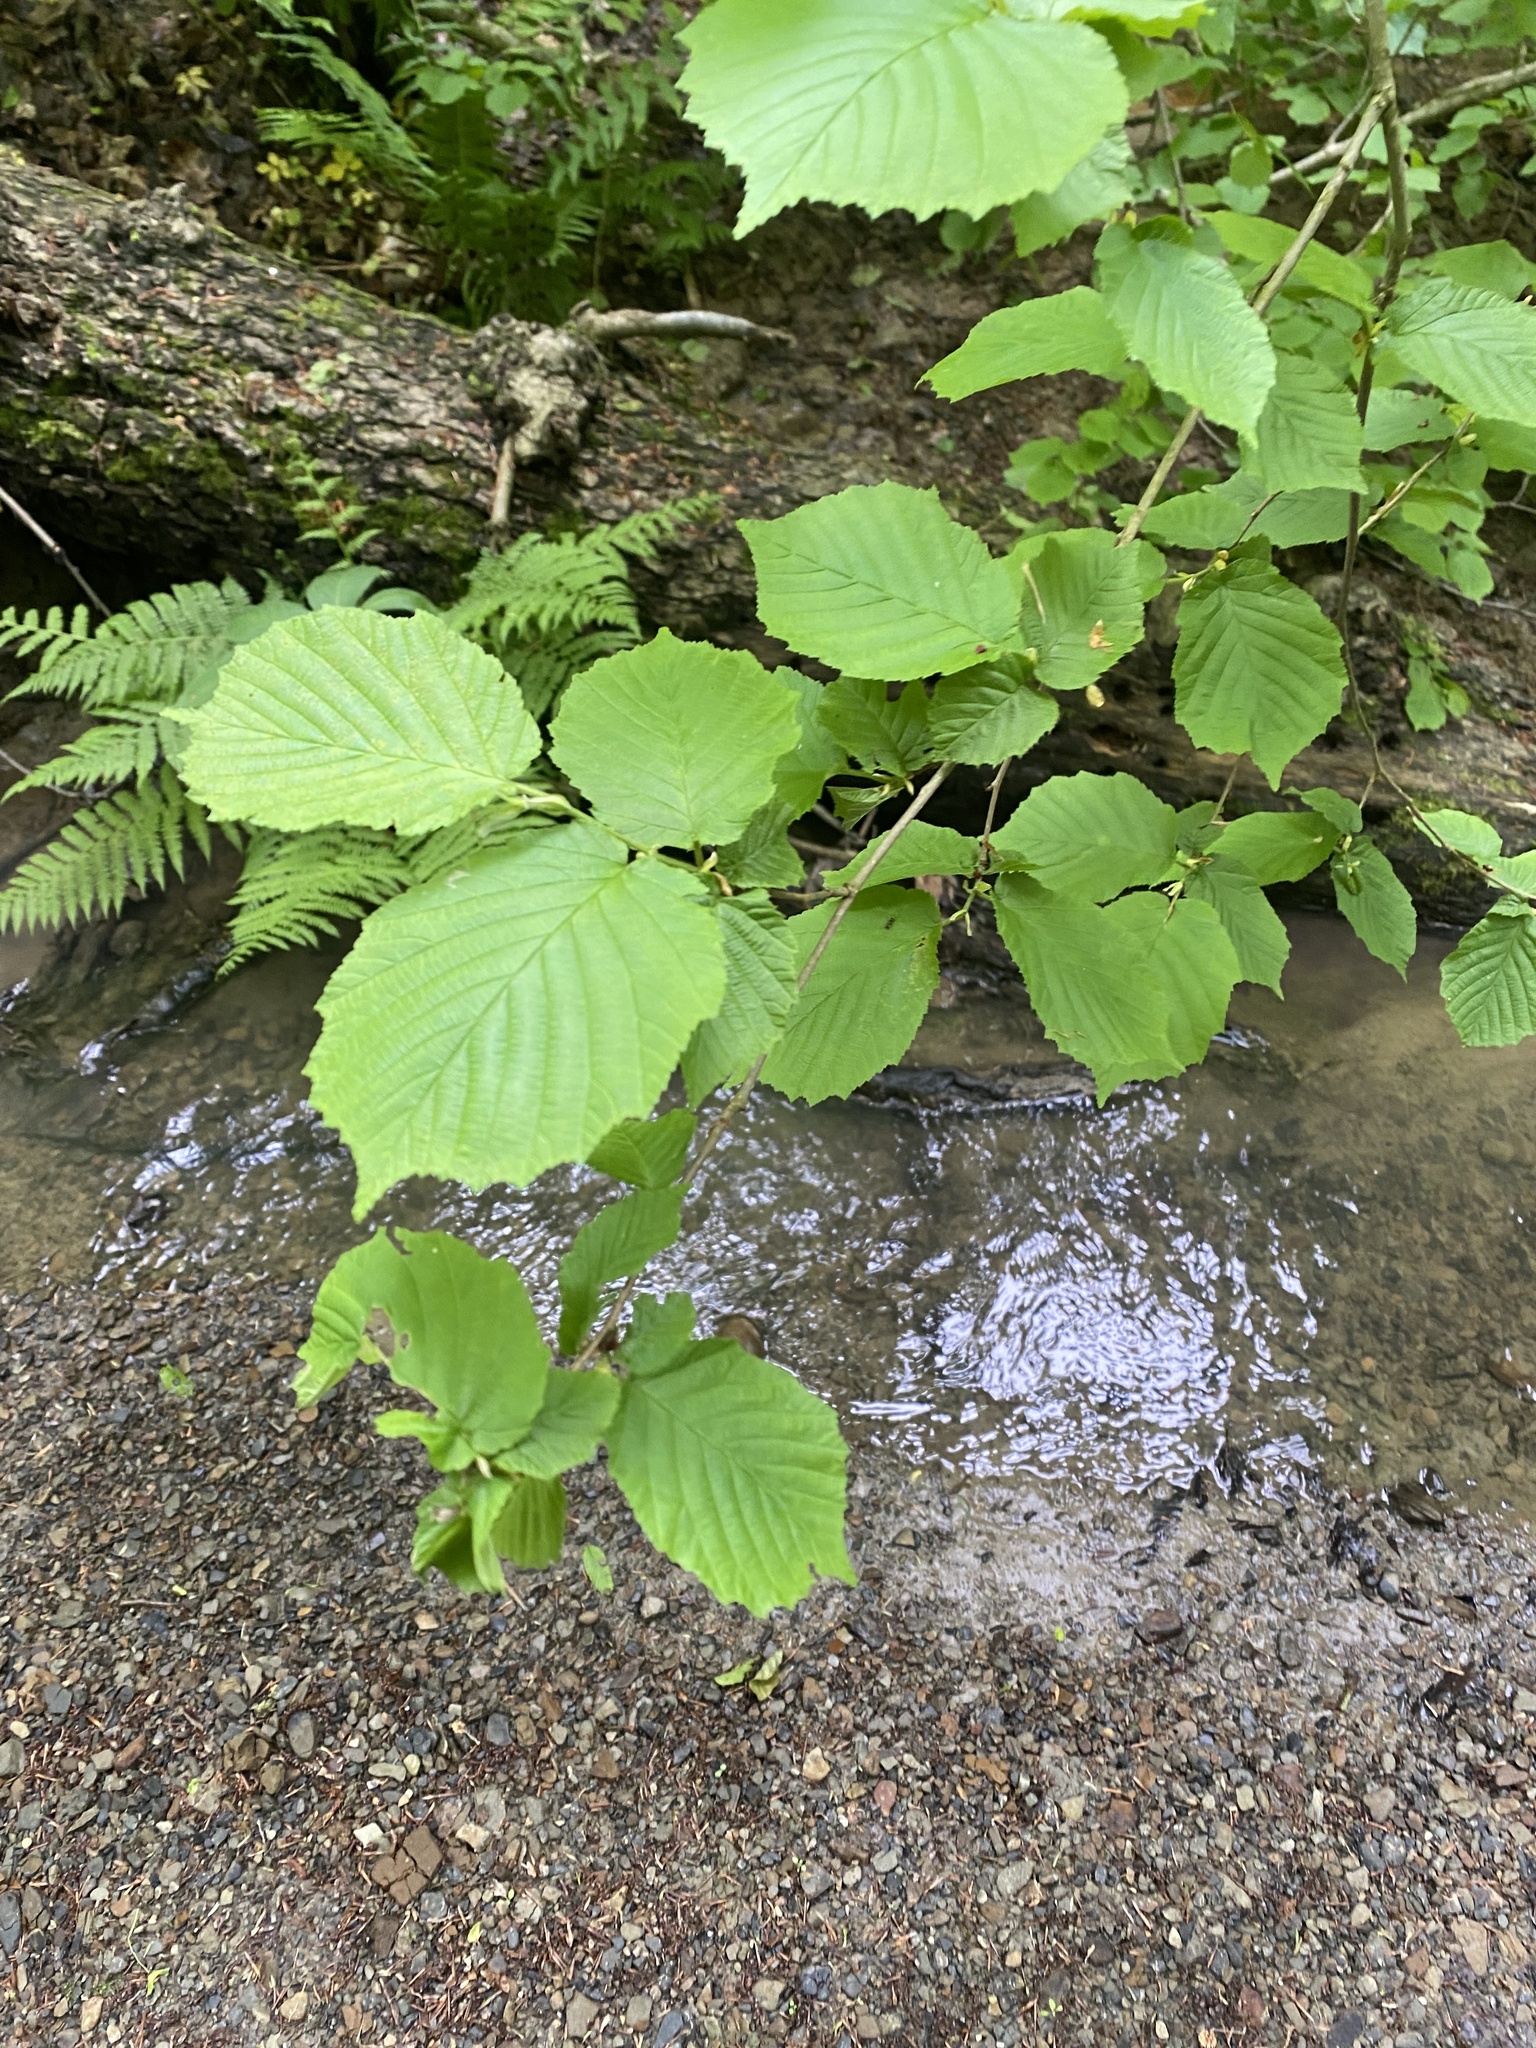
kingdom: Plantae
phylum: Tracheophyta
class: Magnoliopsida
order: Fagales
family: Betulaceae
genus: Corylus
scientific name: Corylus avellana
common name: European hazel
